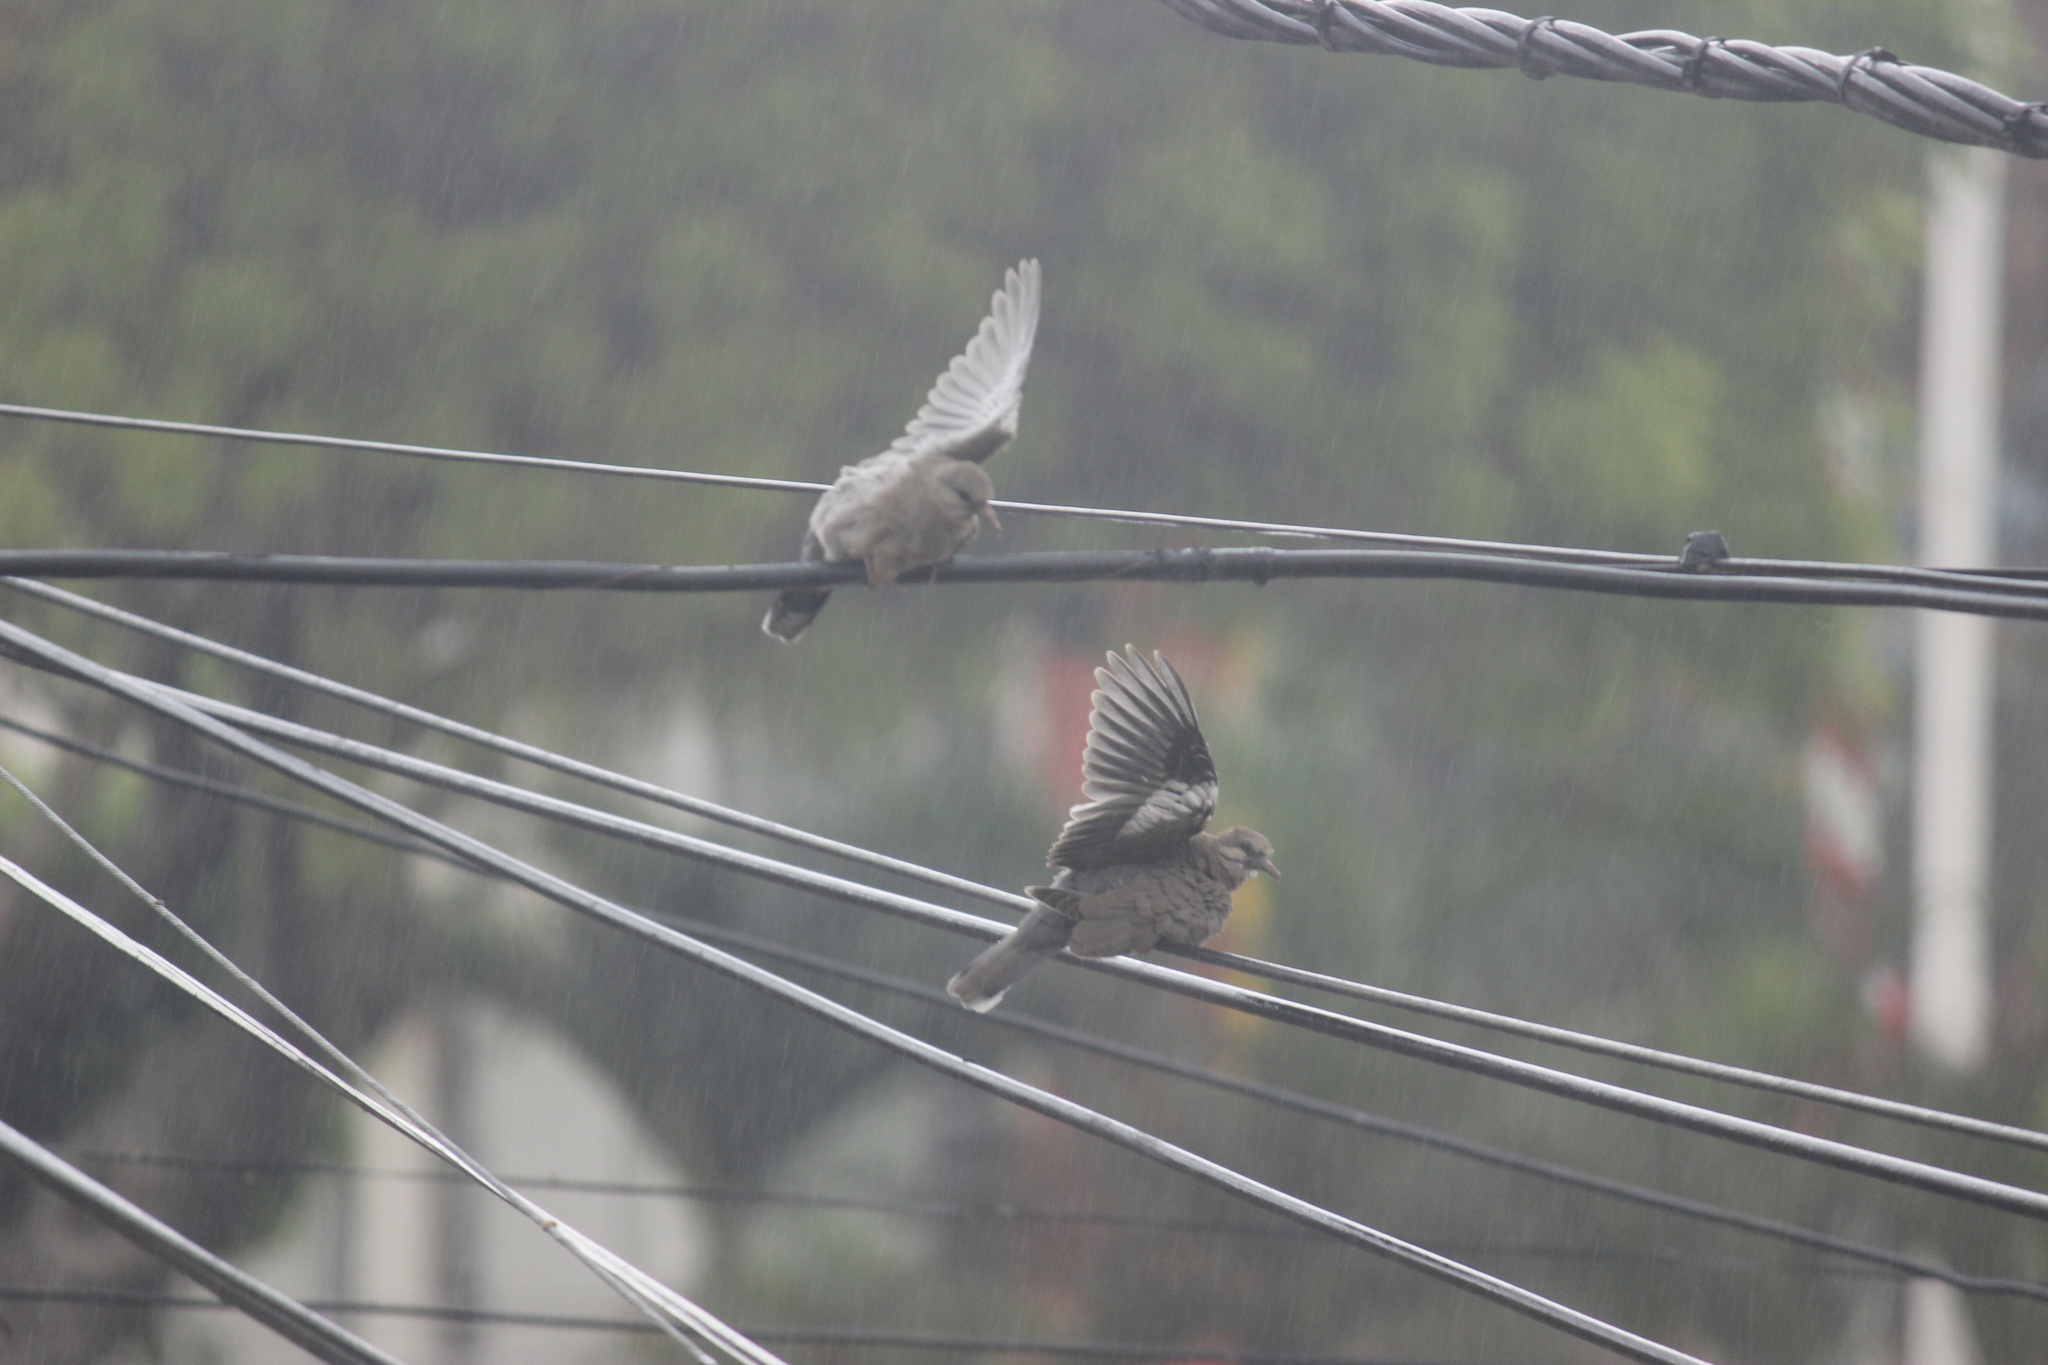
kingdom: Animalia
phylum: Chordata
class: Aves
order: Columbiformes
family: Columbidae
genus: Zenaida
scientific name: Zenaida meloda
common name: West peruvian dove
